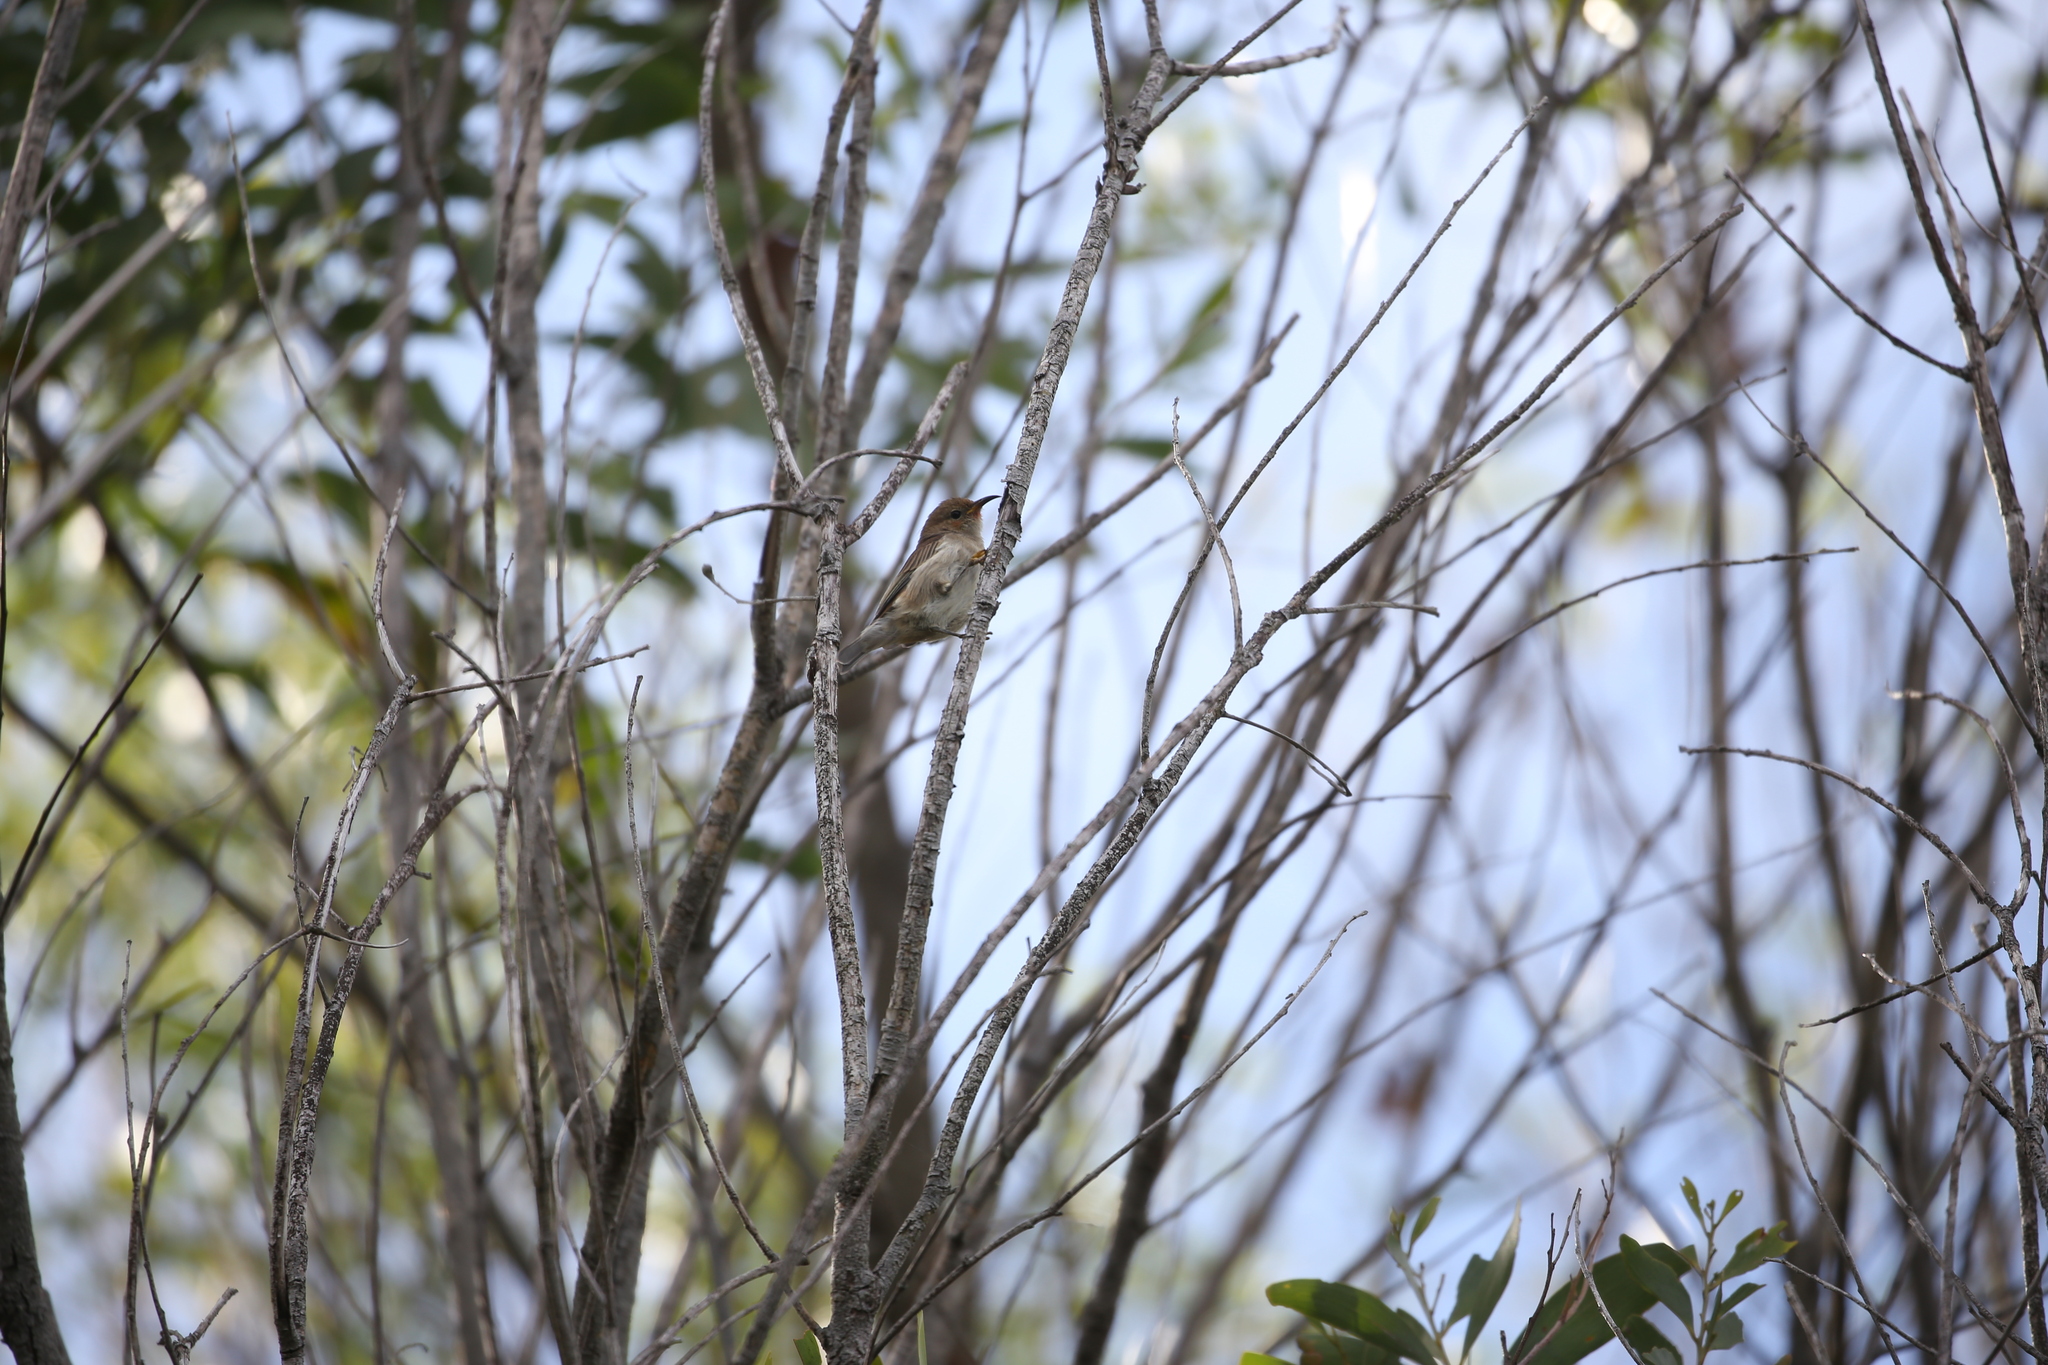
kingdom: Animalia
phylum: Chordata
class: Aves
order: Passeriformes
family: Meliphagidae
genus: Myzomela
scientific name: Myzomela sanguinolenta
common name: Scarlet myzomela
